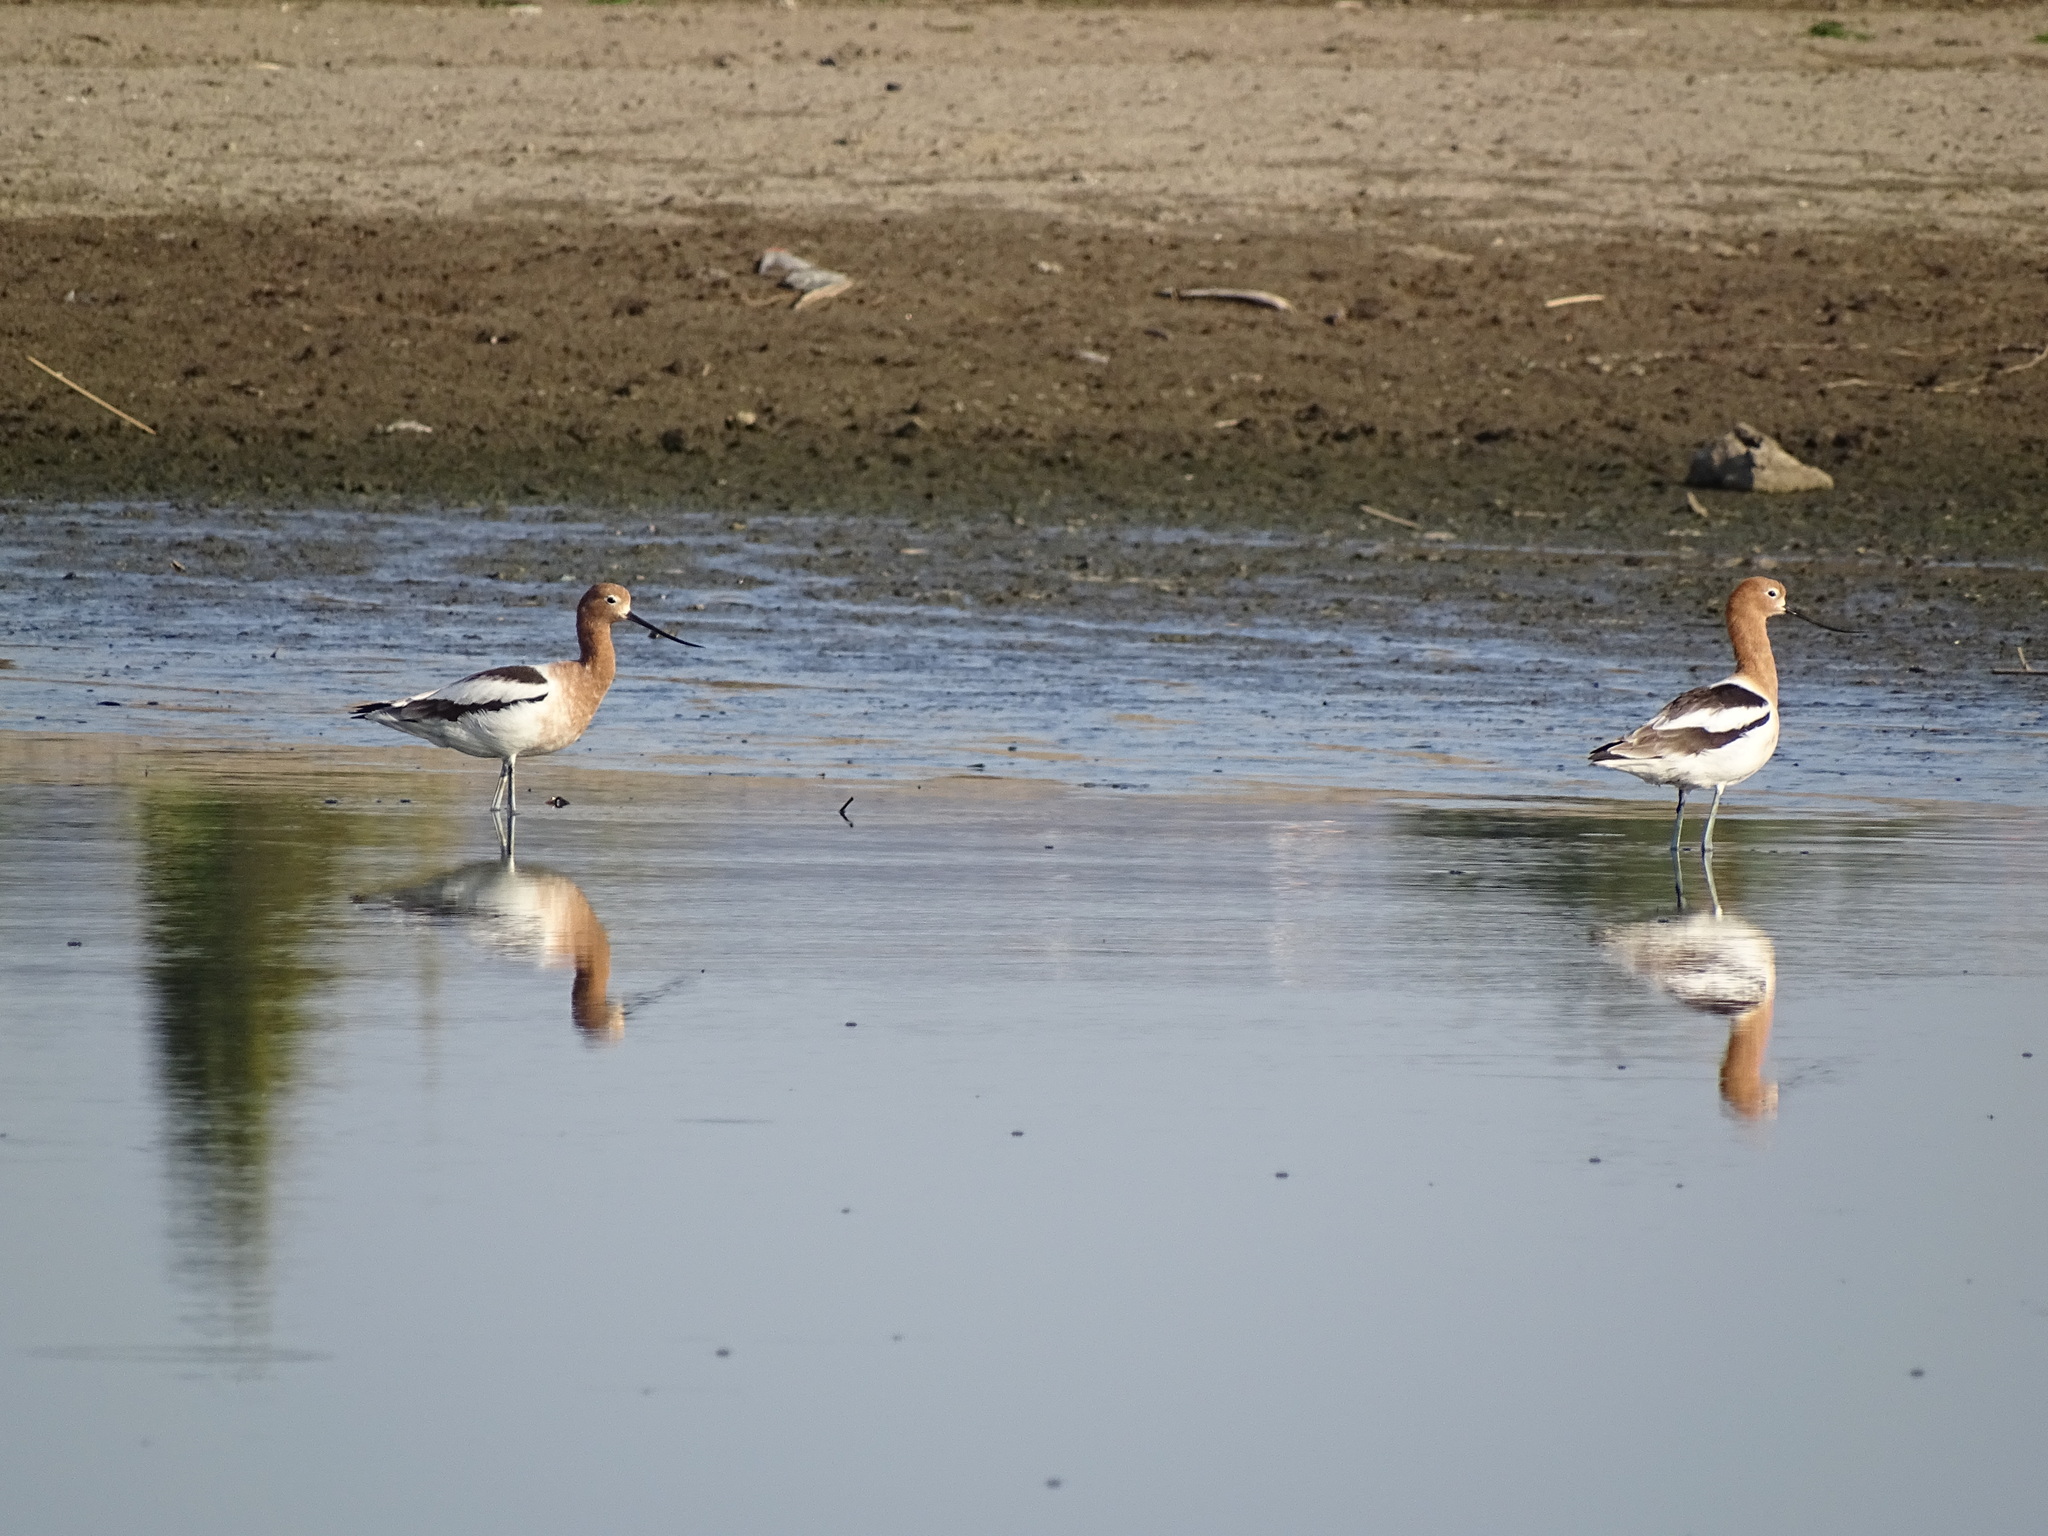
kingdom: Animalia
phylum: Chordata
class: Aves
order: Charadriiformes
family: Recurvirostridae
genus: Recurvirostra
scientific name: Recurvirostra americana
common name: American avocet
